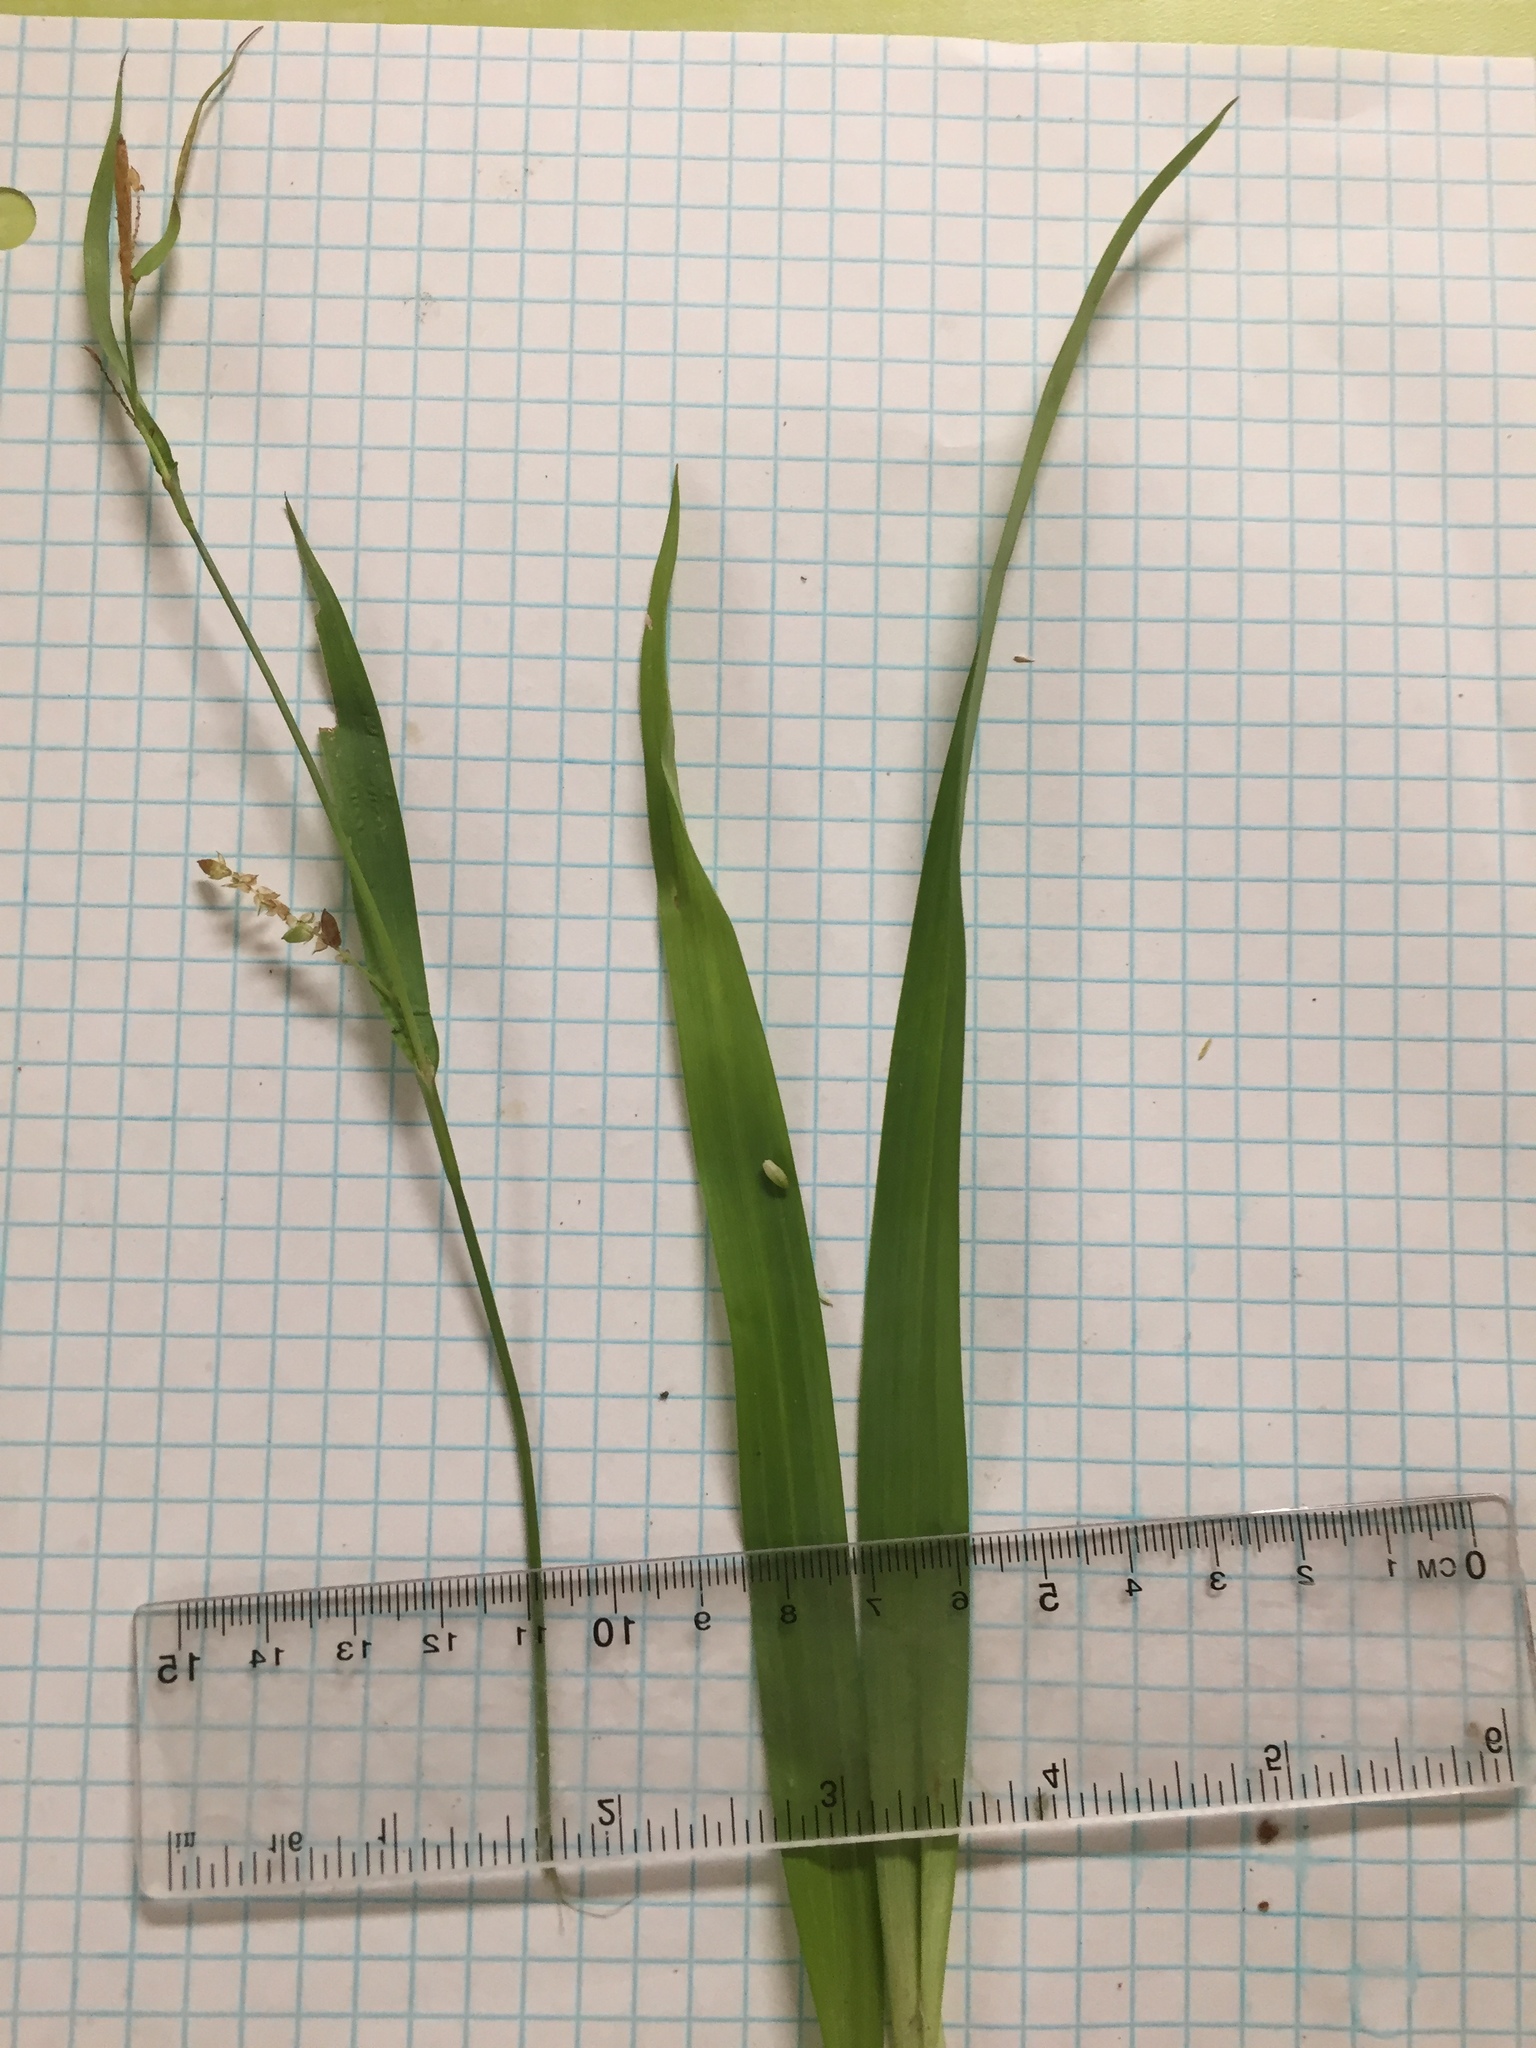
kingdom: Plantae
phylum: Tracheophyta
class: Liliopsida
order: Poales
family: Cyperaceae
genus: Carex
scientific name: Carex flaccosperma
